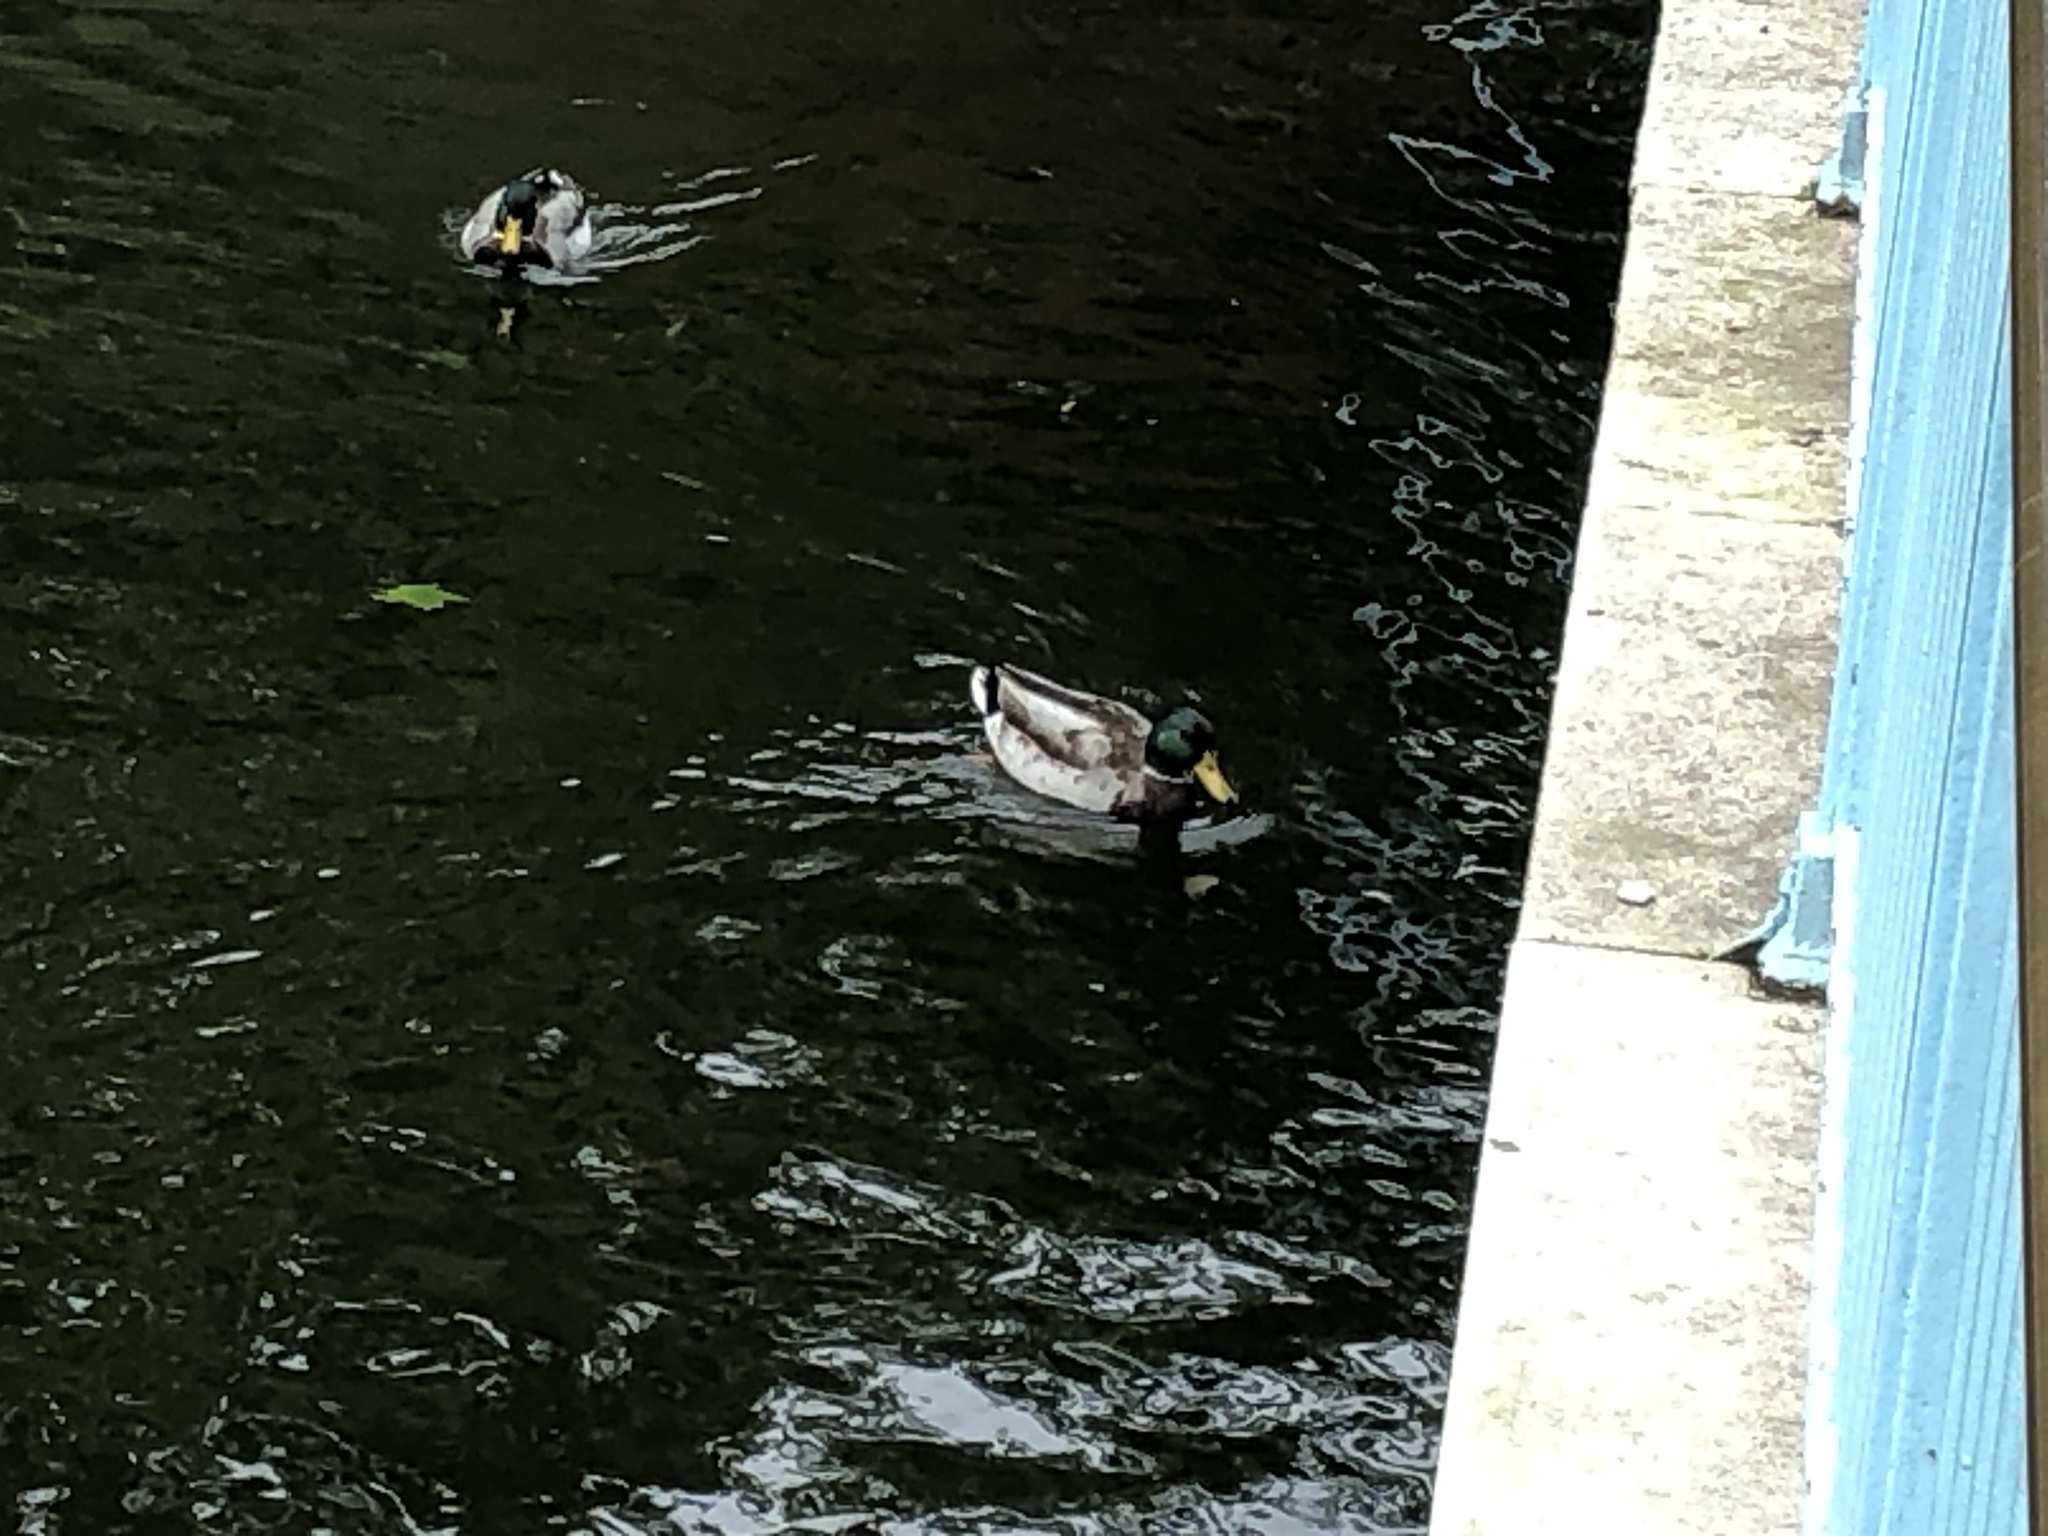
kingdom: Animalia
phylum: Chordata
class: Aves
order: Anseriformes
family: Anatidae
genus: Anas
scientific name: Anas platyrhynchos
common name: Mallard
